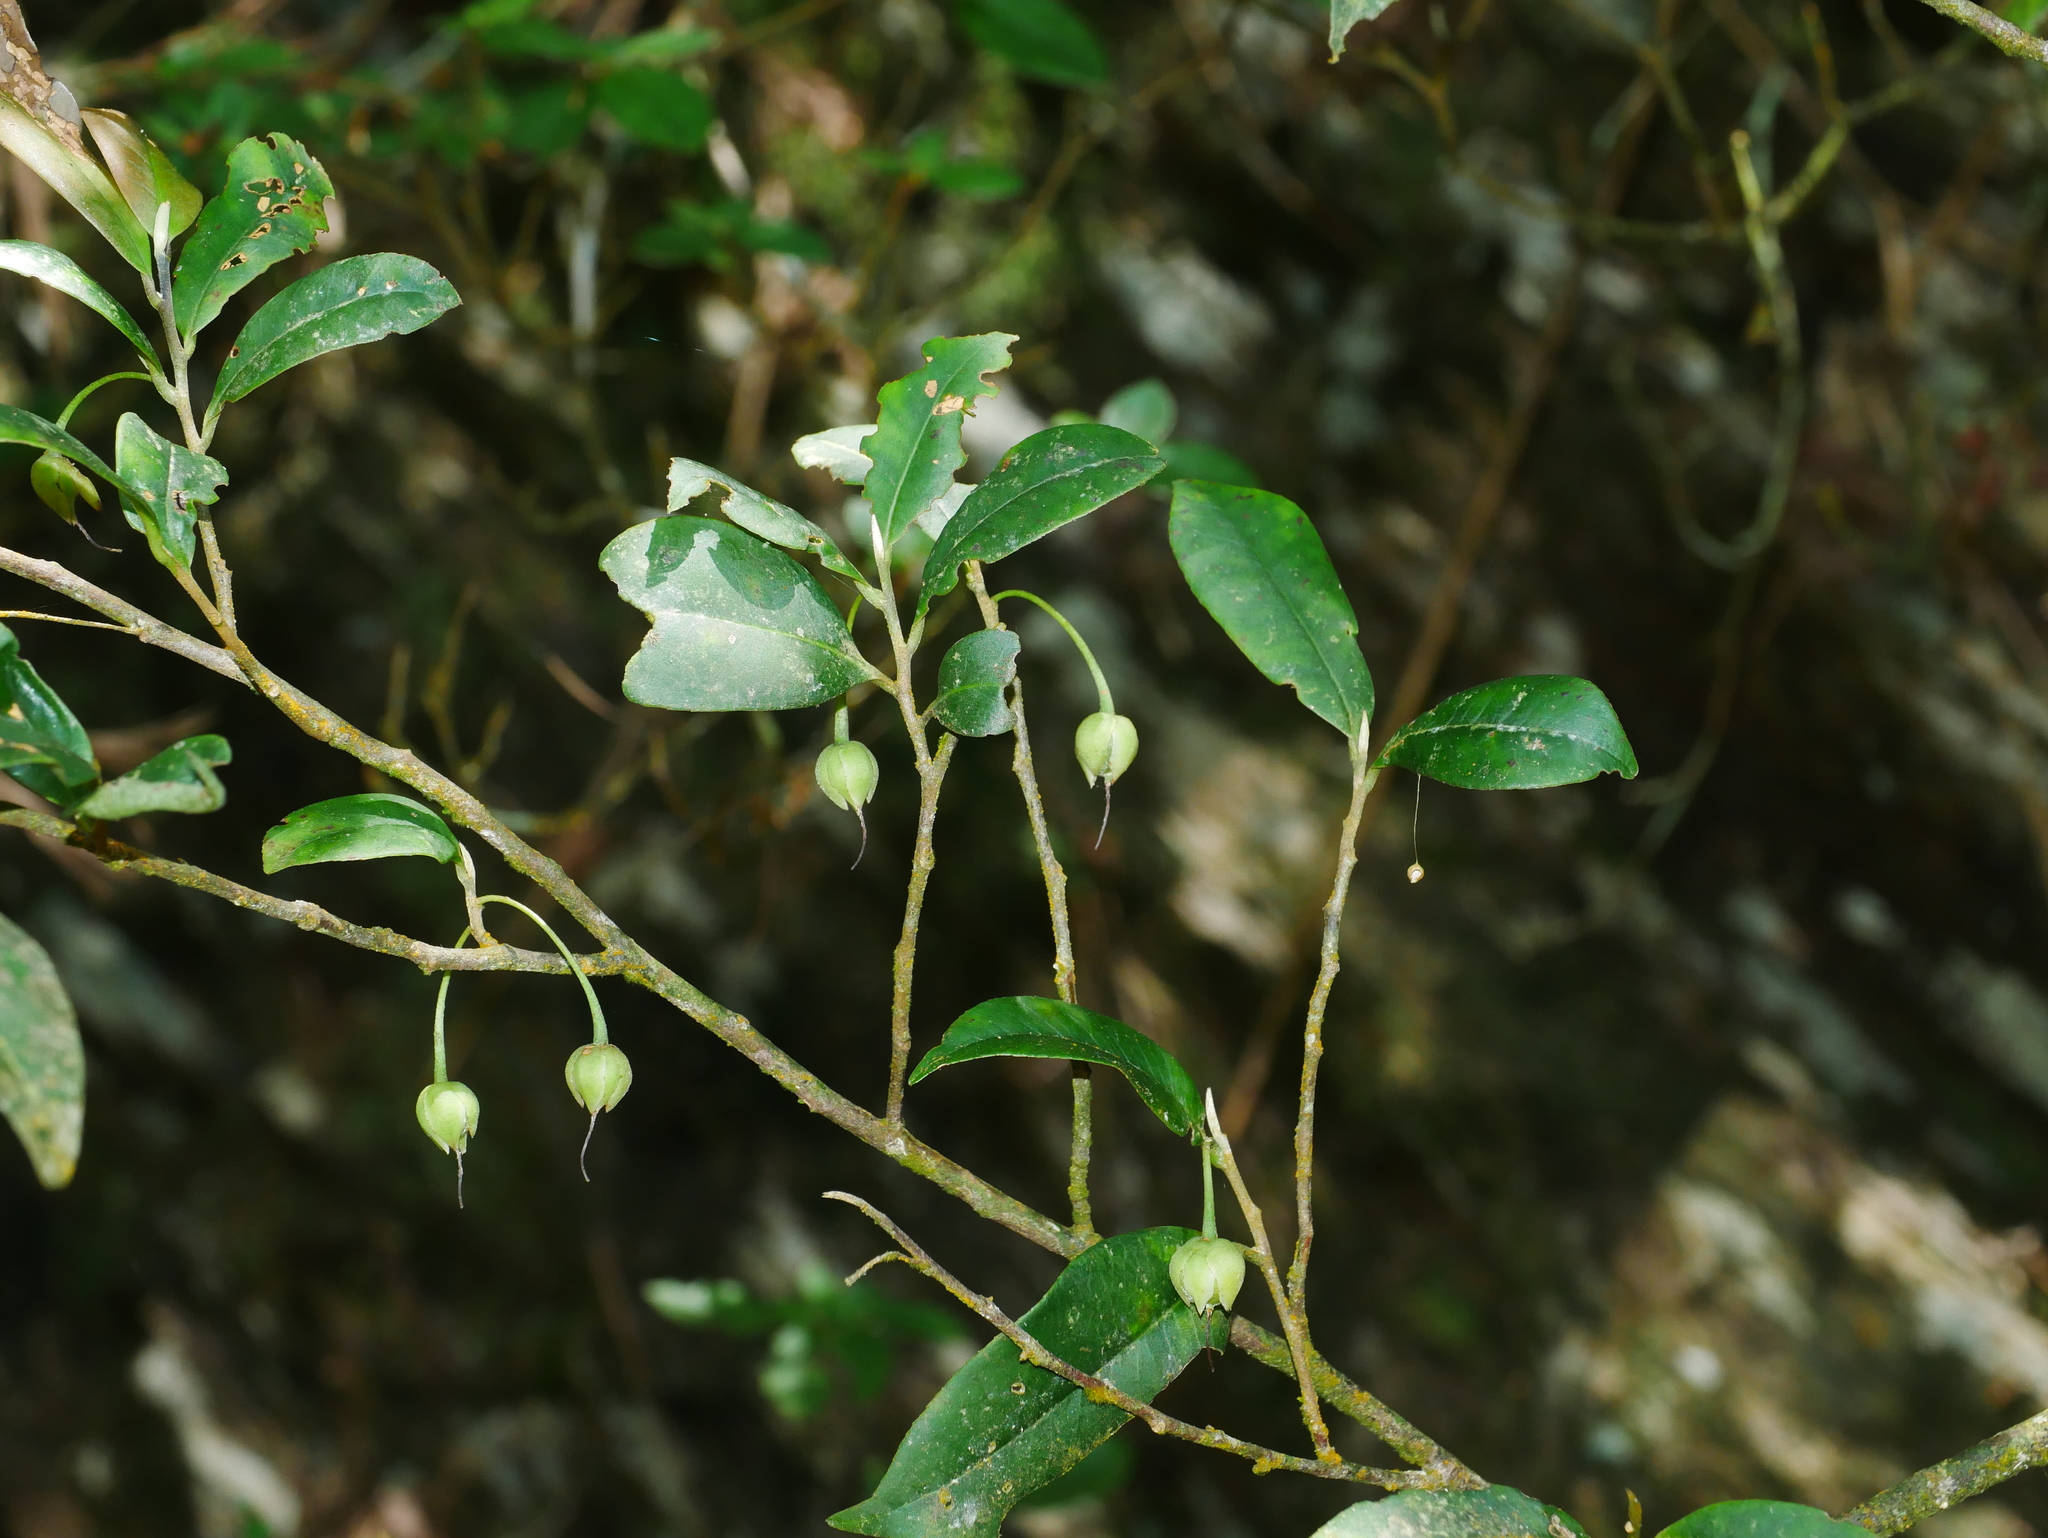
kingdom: Plantae
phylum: Tracheophyta
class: Magnoliopsida
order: Ericales
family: Pentaphylacaceae
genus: Adinandra
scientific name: Adinandra formosana
